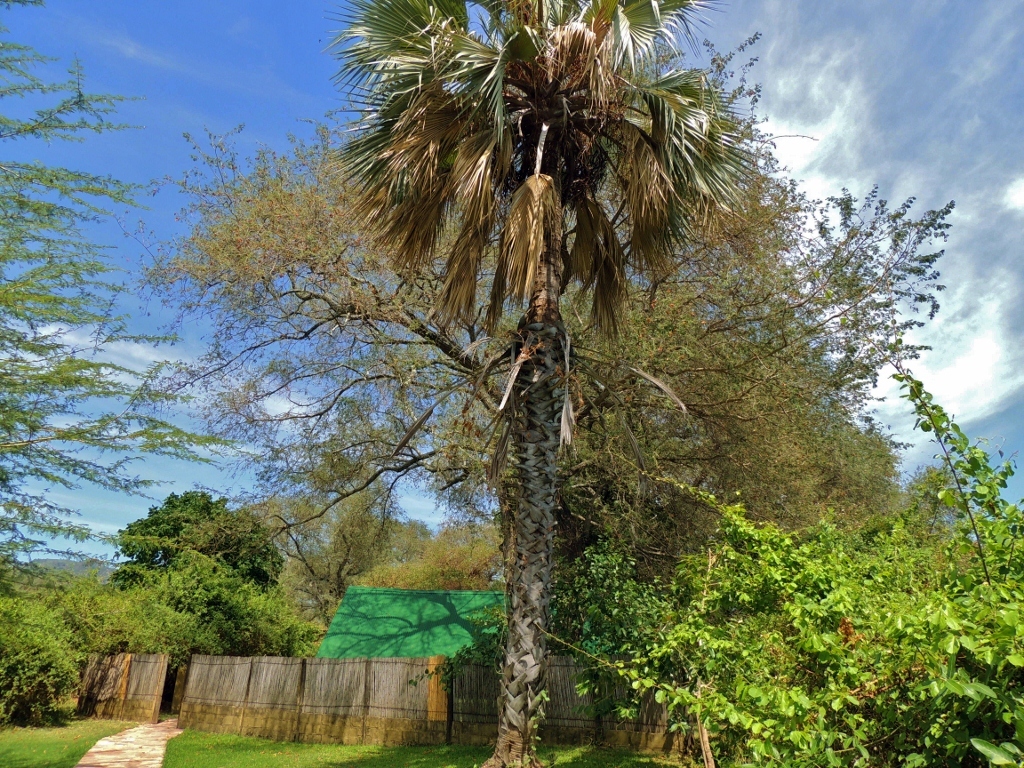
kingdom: Plantae
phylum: Tracheophyta
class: Liliopsida
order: Arecales
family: Arecaceae
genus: Hyphaene
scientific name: Hyphaene petersiana
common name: African ivory nut palm
